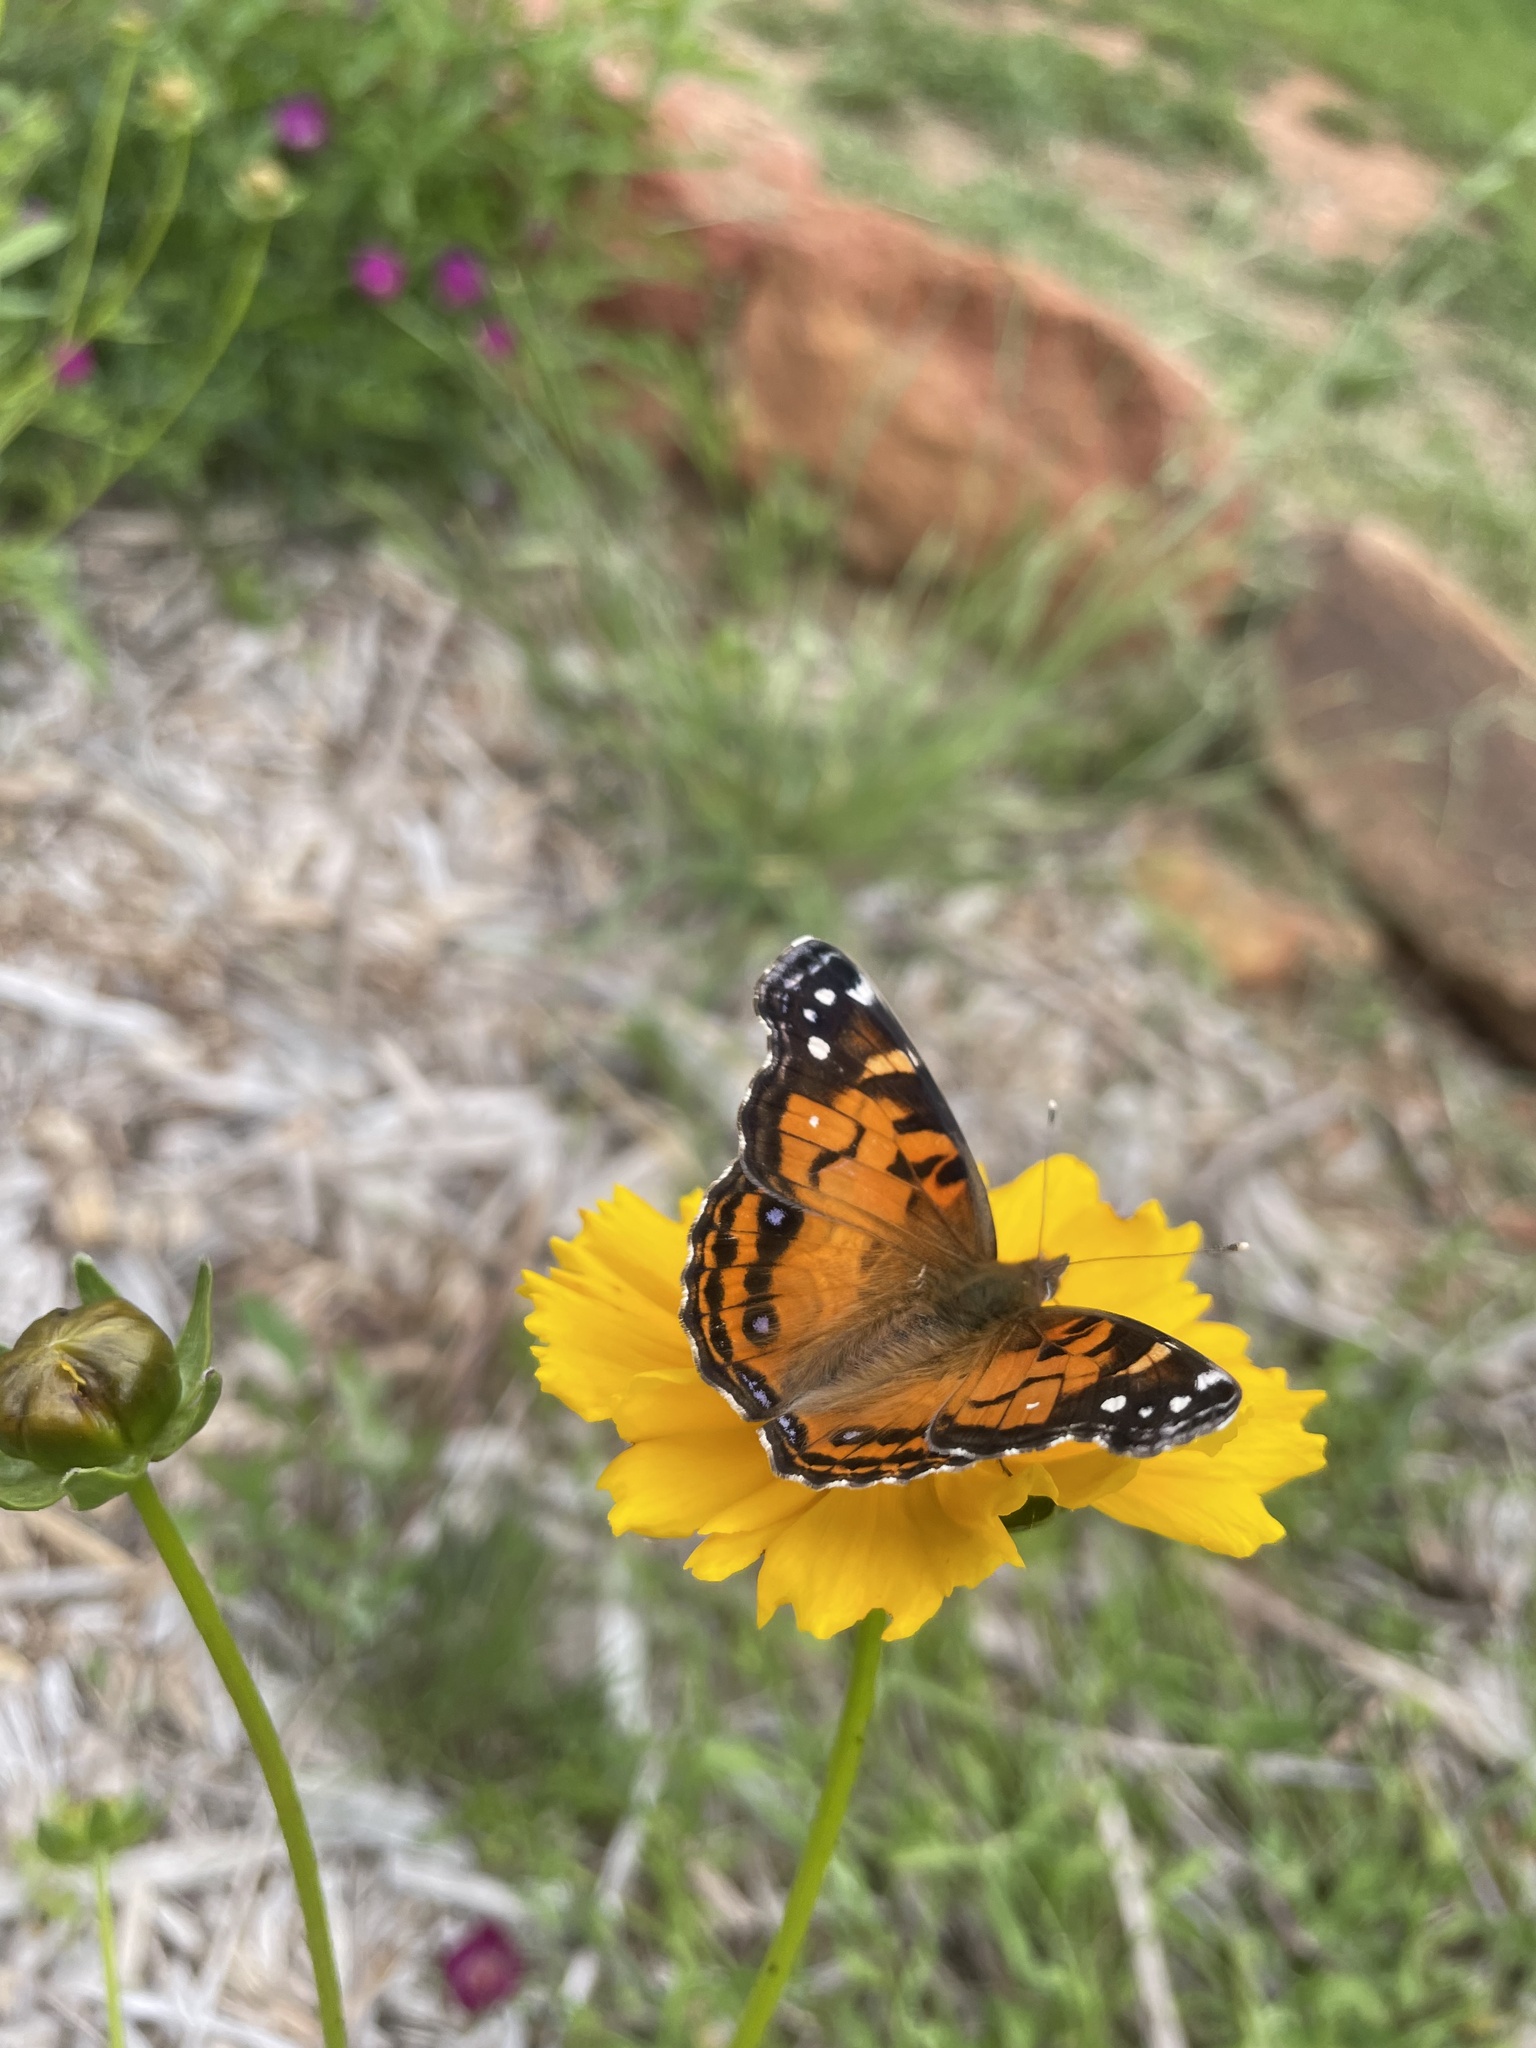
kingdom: Animalia
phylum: Arthropoda
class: Insecta
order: Lepidoptera
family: Nymphalidae
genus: Vanessa
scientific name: Vanessa virginiensis
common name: American lady
